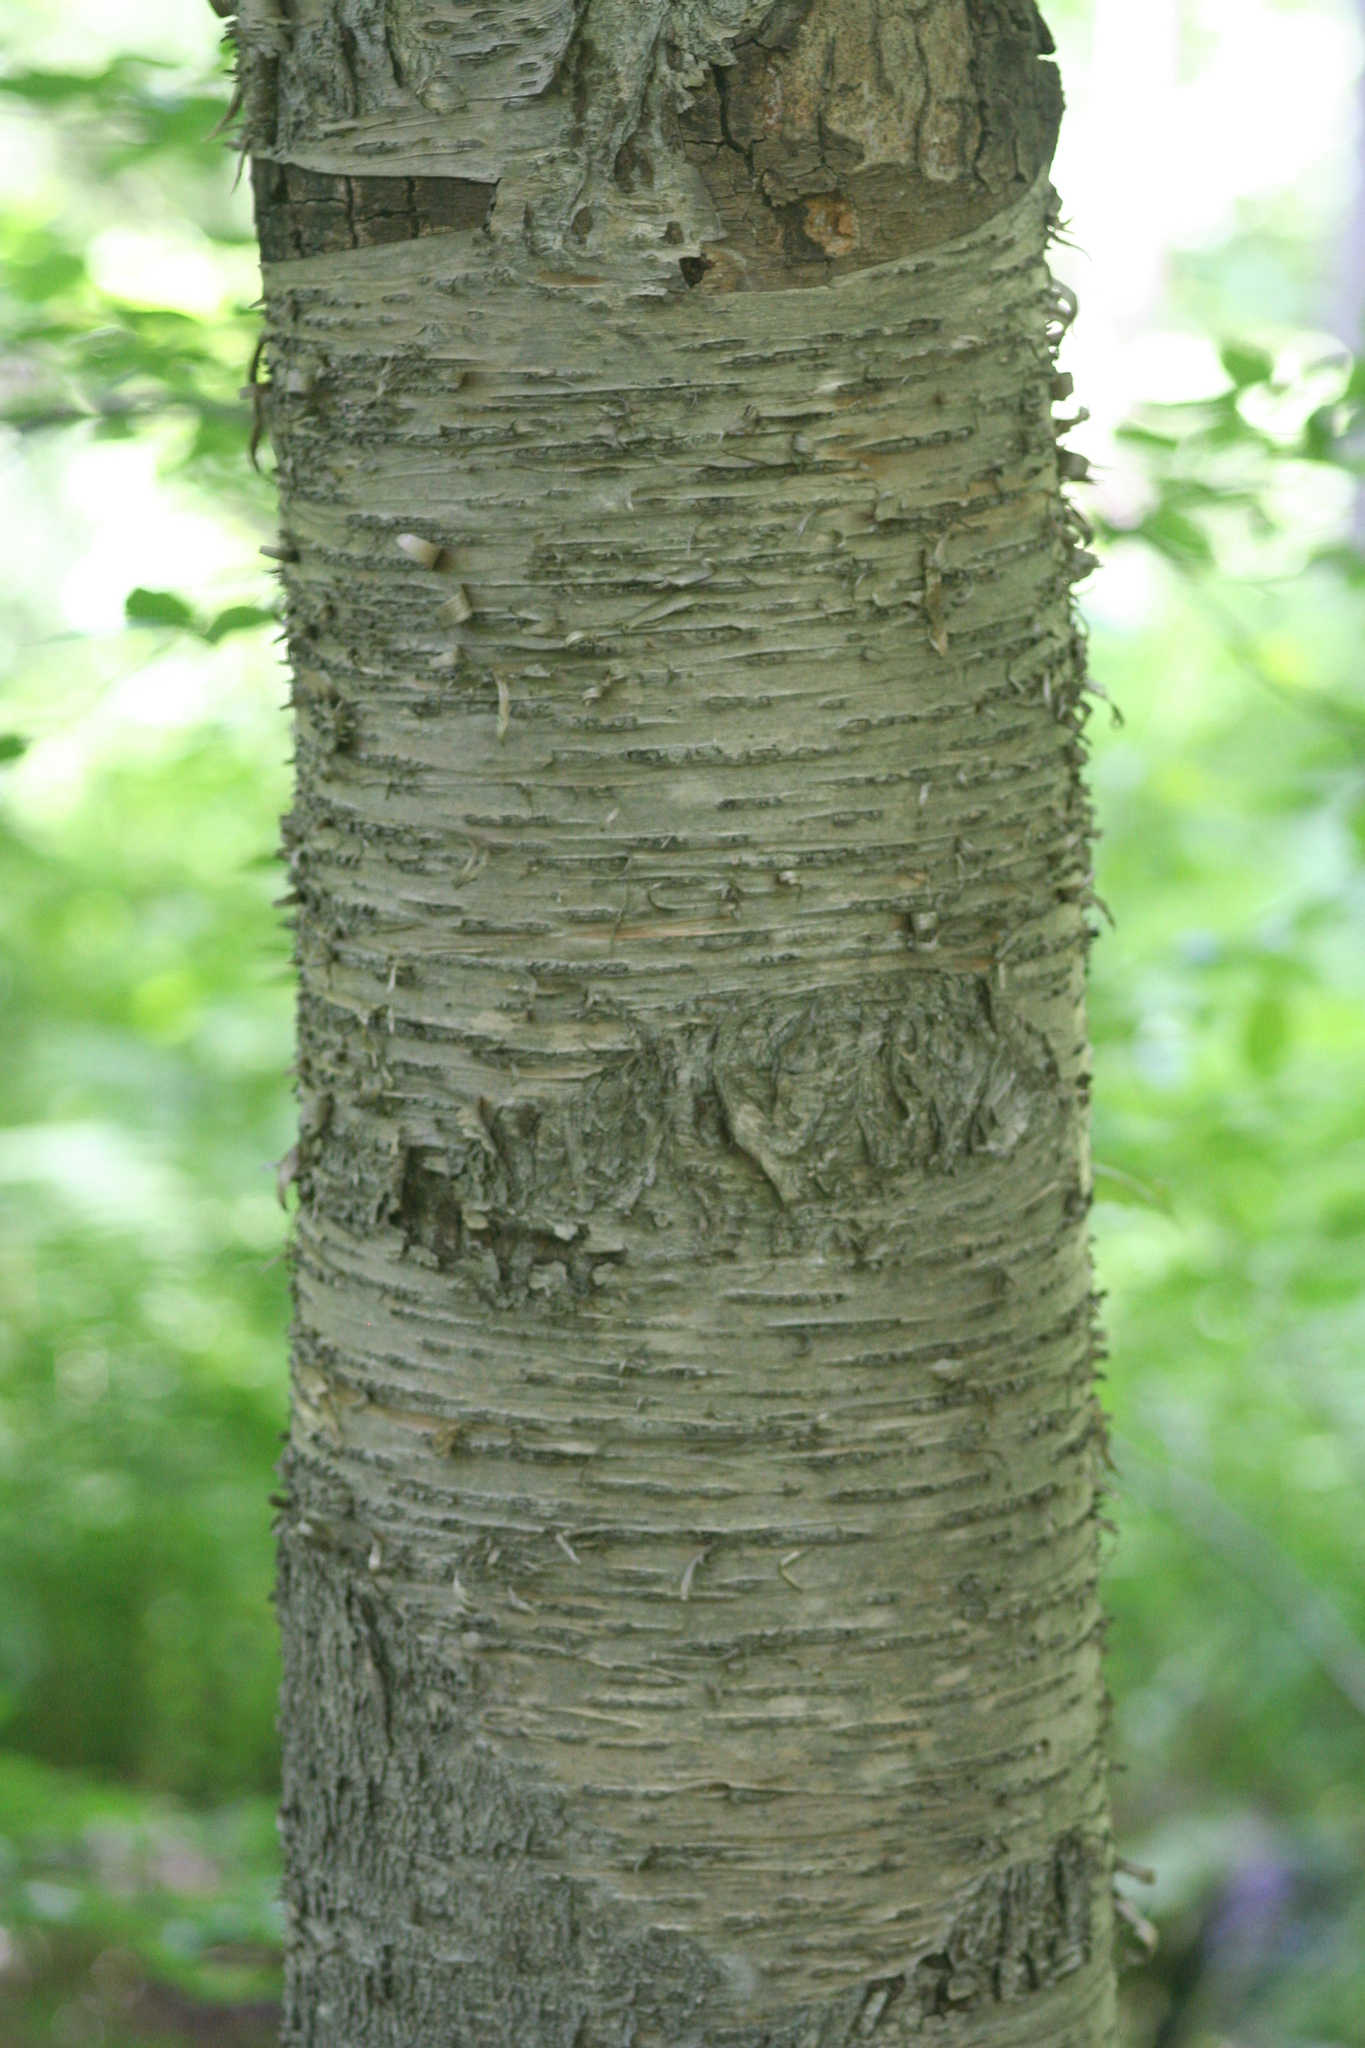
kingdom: Plantae
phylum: Tracheophyta
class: Magnoliopsida
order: Fagales
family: Betulaceae
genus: Betula
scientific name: Betula alleghaniensis
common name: Yellow birch
